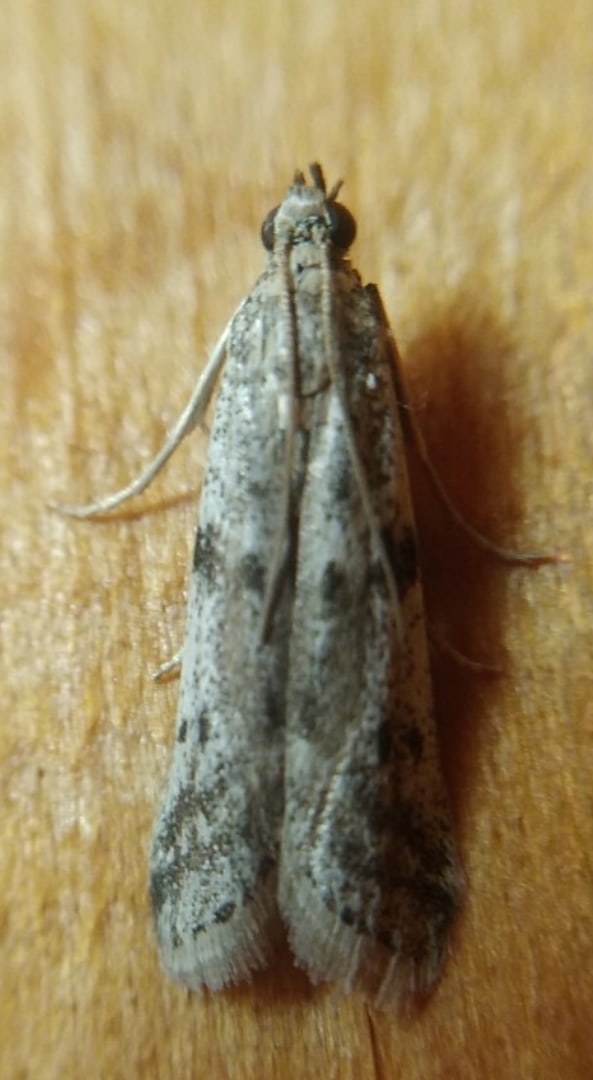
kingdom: Animalia
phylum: Arthropoda
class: Insecta
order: Lepidoptera
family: Pyralidae
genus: Phycitodes
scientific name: Phycitodes binaevella
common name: Ermine knot-horn
